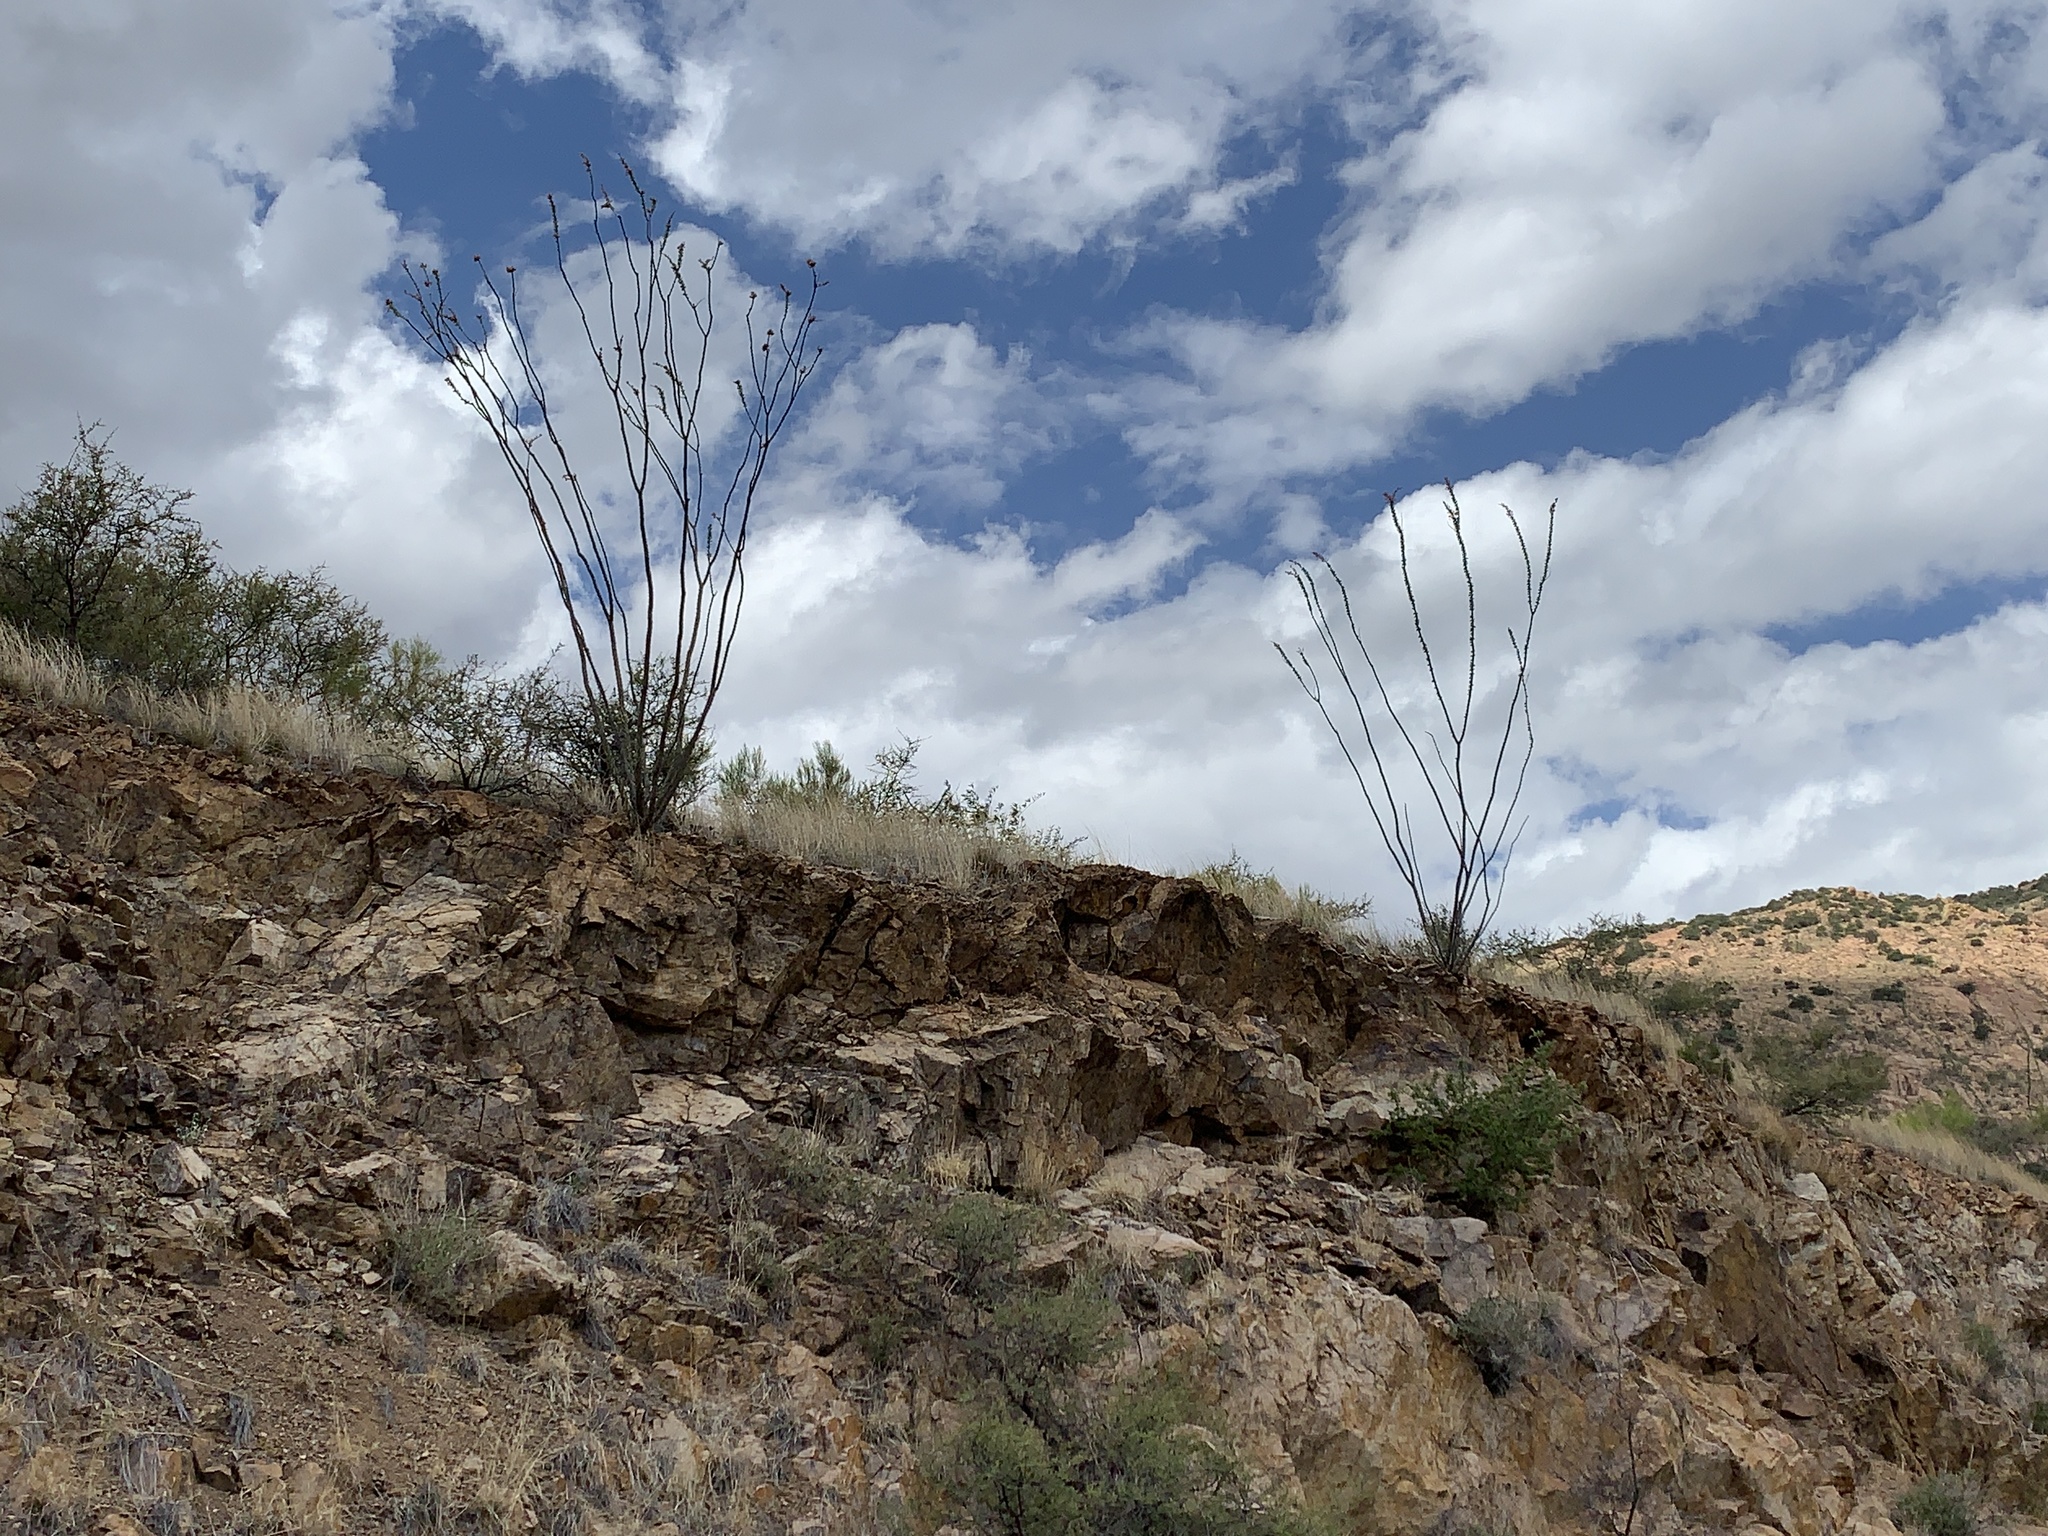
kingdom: Plantae
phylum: Tracheophyta
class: Magnoliopsida
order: Ericales
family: Fouquieriaceae
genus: Fouquieria
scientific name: Fouquieria splendens
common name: Vine-cactus
